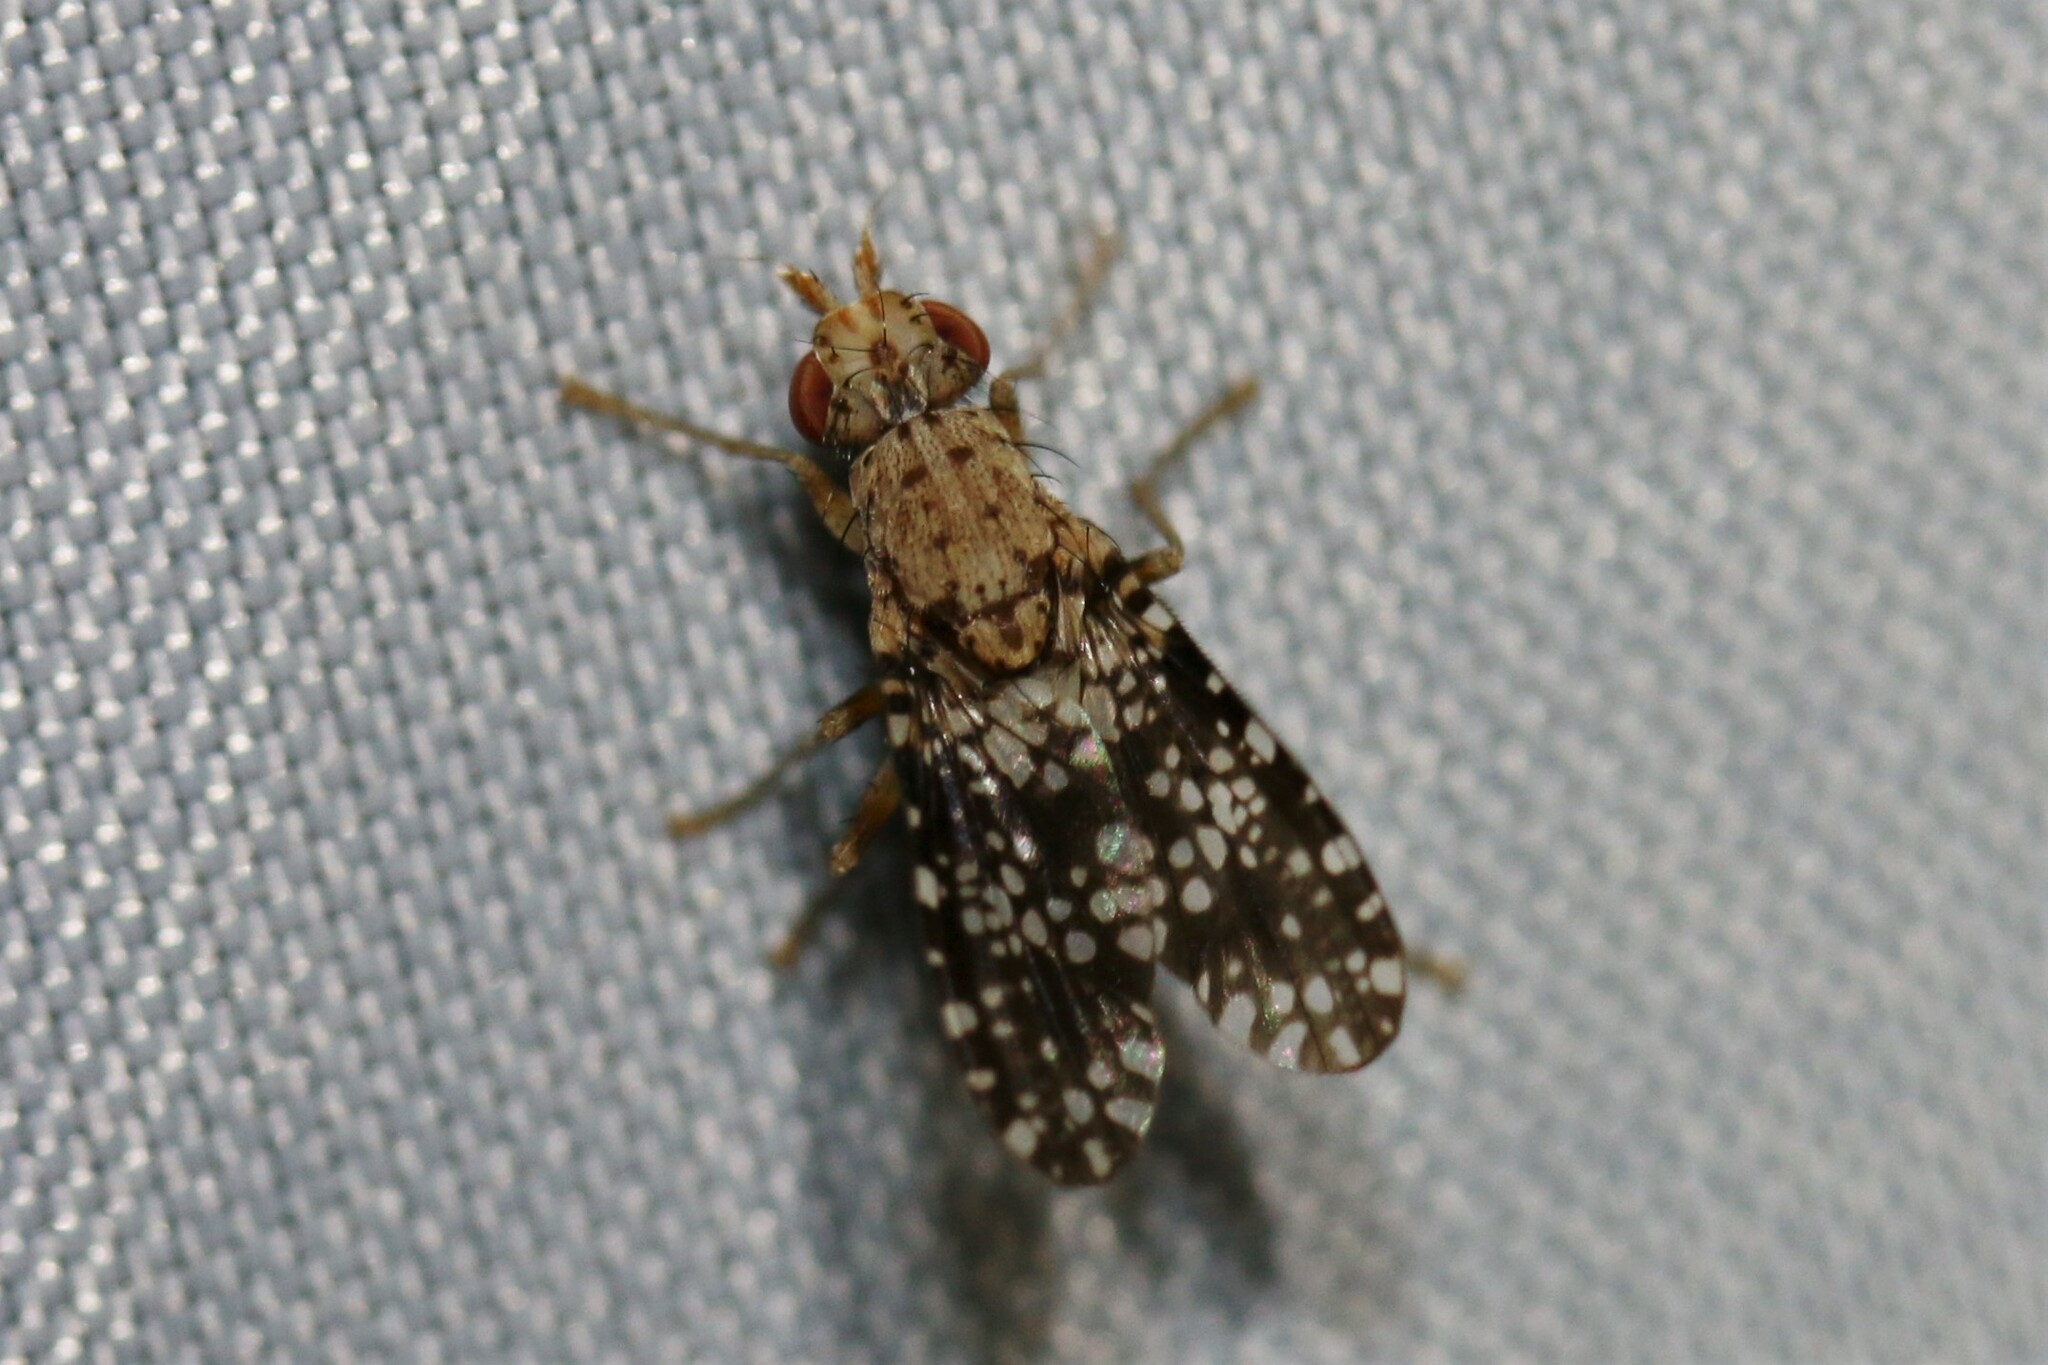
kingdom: Animalia
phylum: Arthropoda
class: Insecta
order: Diptera
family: Sciomyzidae
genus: Trypetoptera
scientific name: Trypetoptera punctulata
